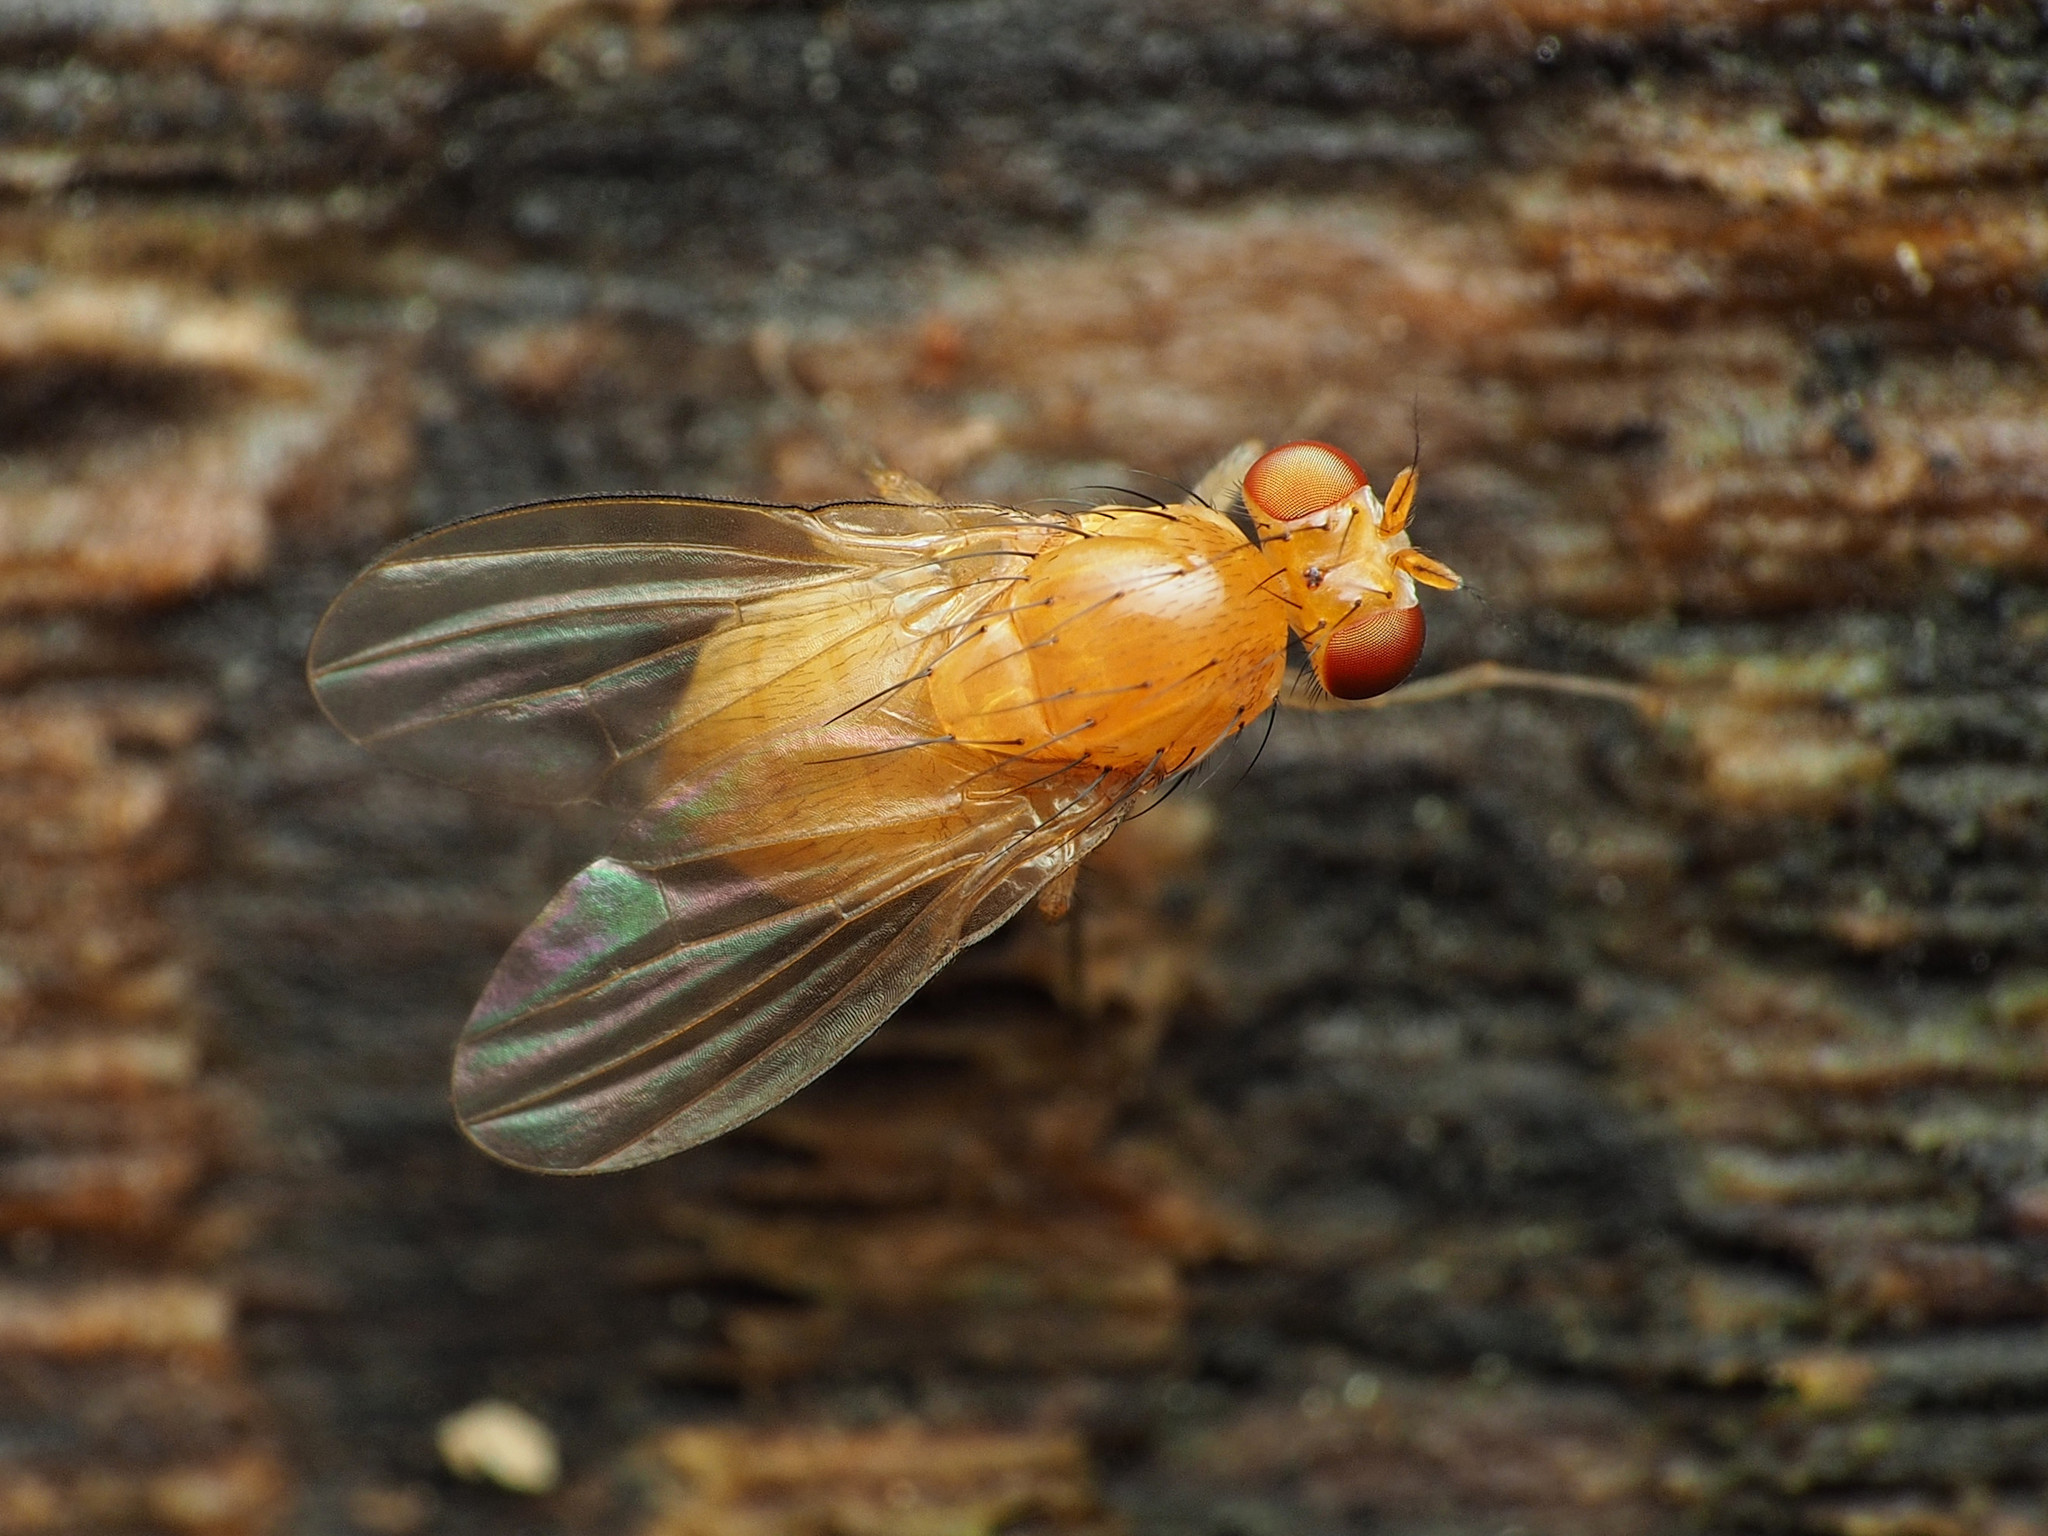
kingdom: Animalia
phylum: Arthropoda
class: Insecta
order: Diptera
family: Lauxaniidae
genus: Neogriphoneura
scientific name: Neogriphoneura sordida
